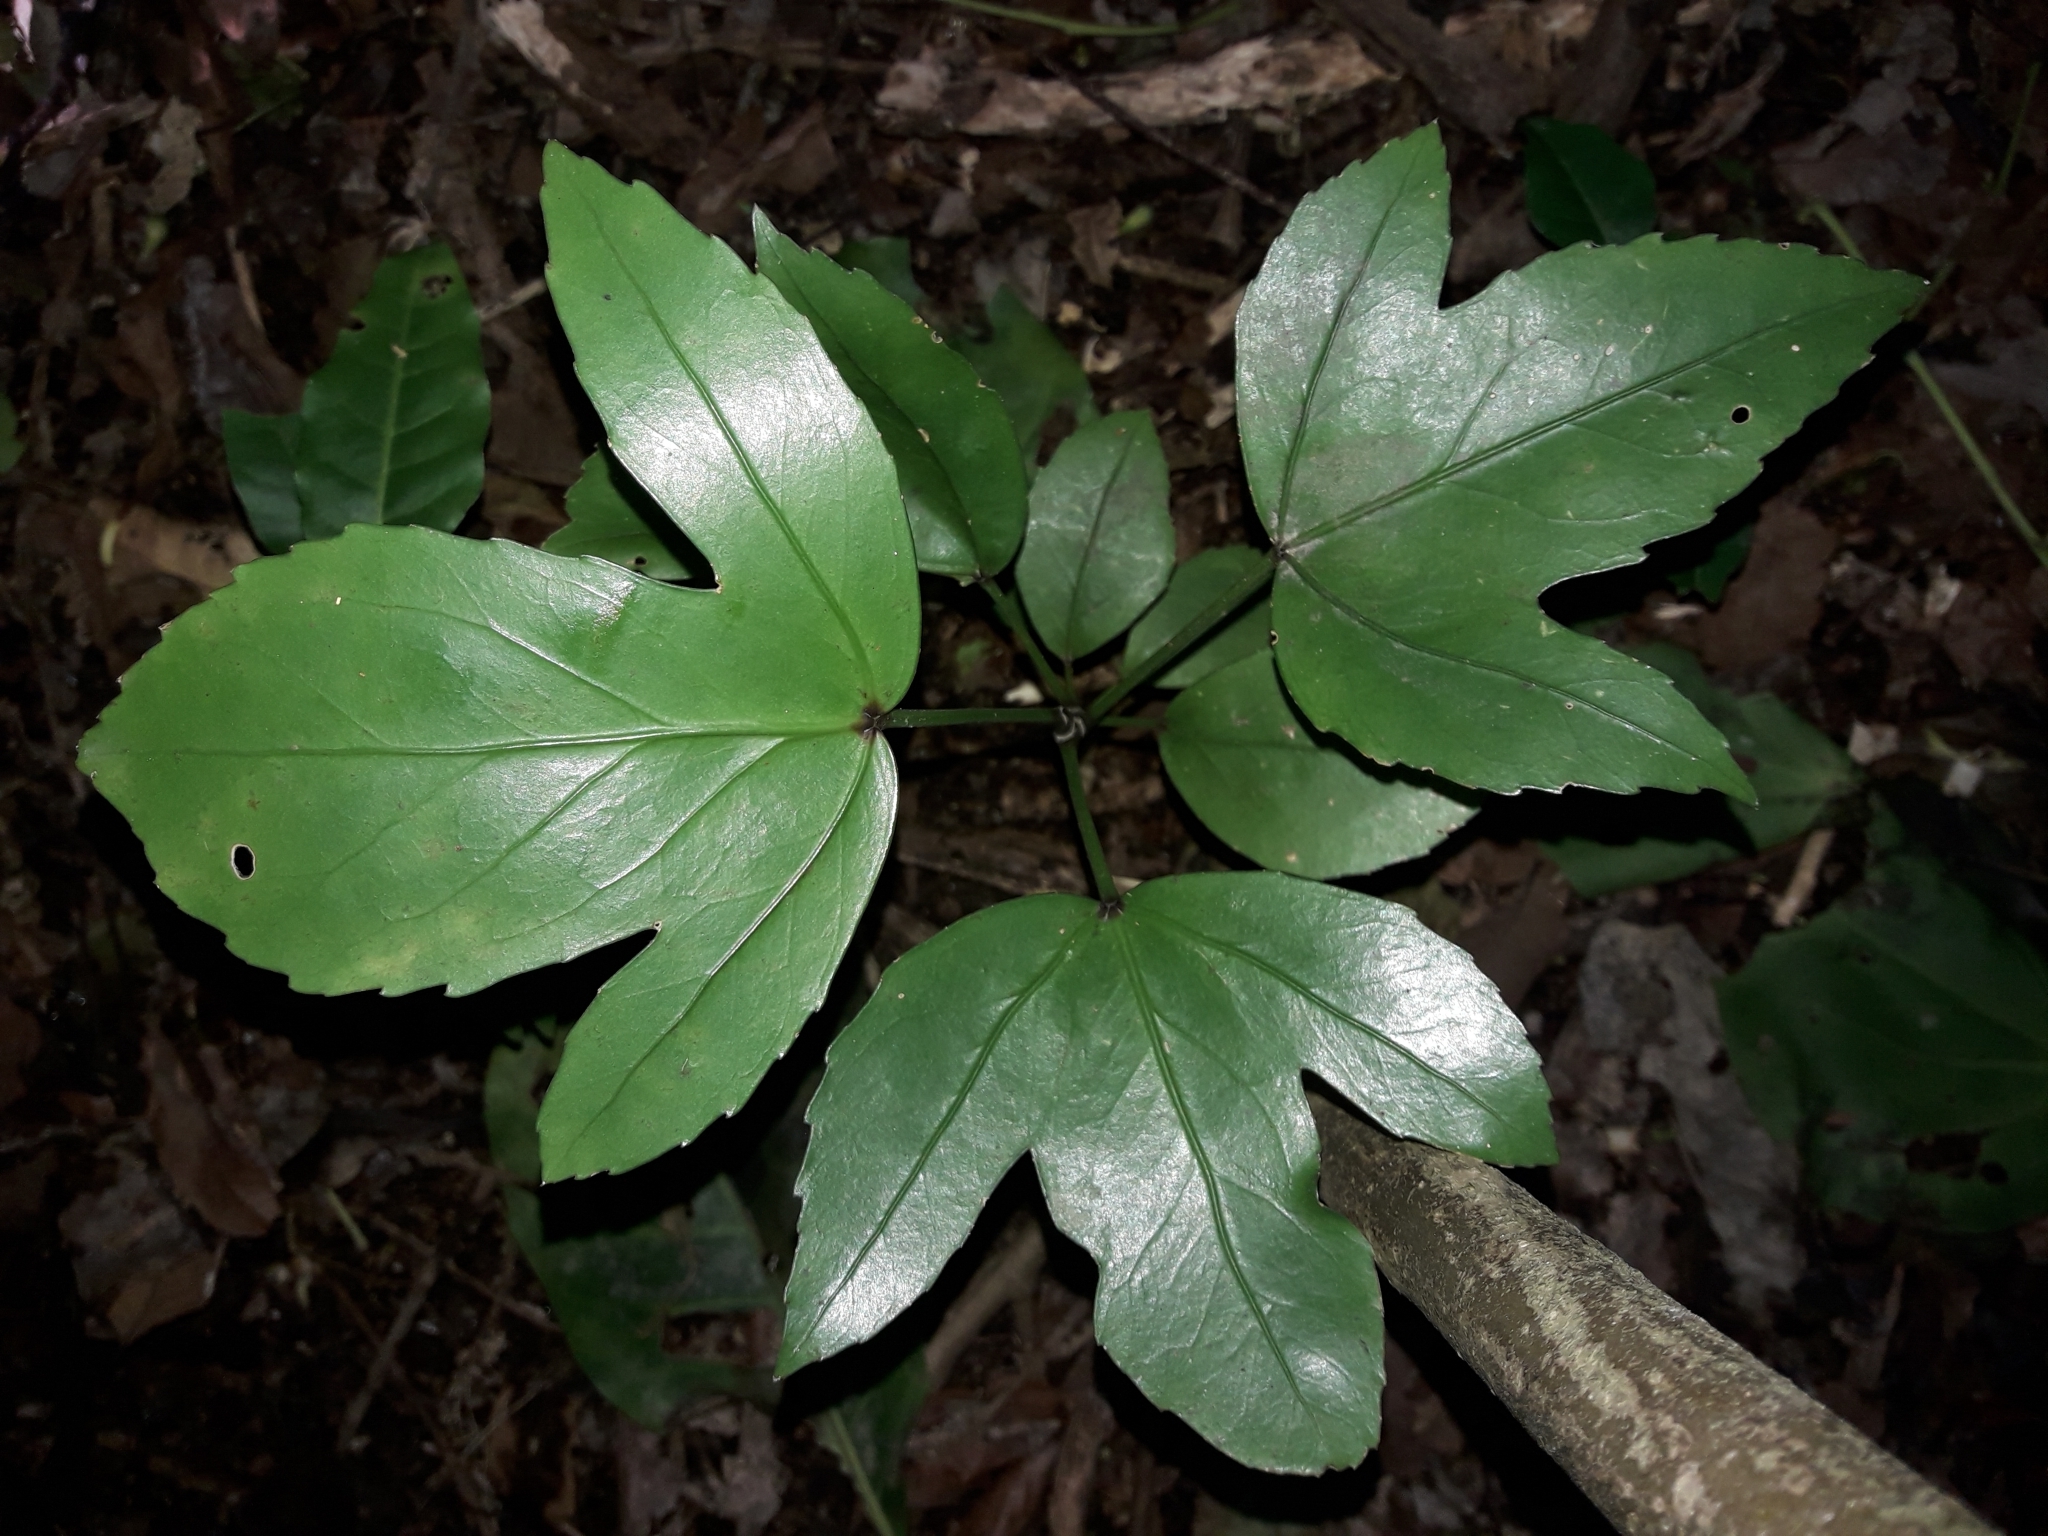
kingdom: Plantae
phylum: Tracheophyta
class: Magnoliopsida
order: Apiales
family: Araliaceae
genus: Pseudopanax
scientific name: Pseudopanax
